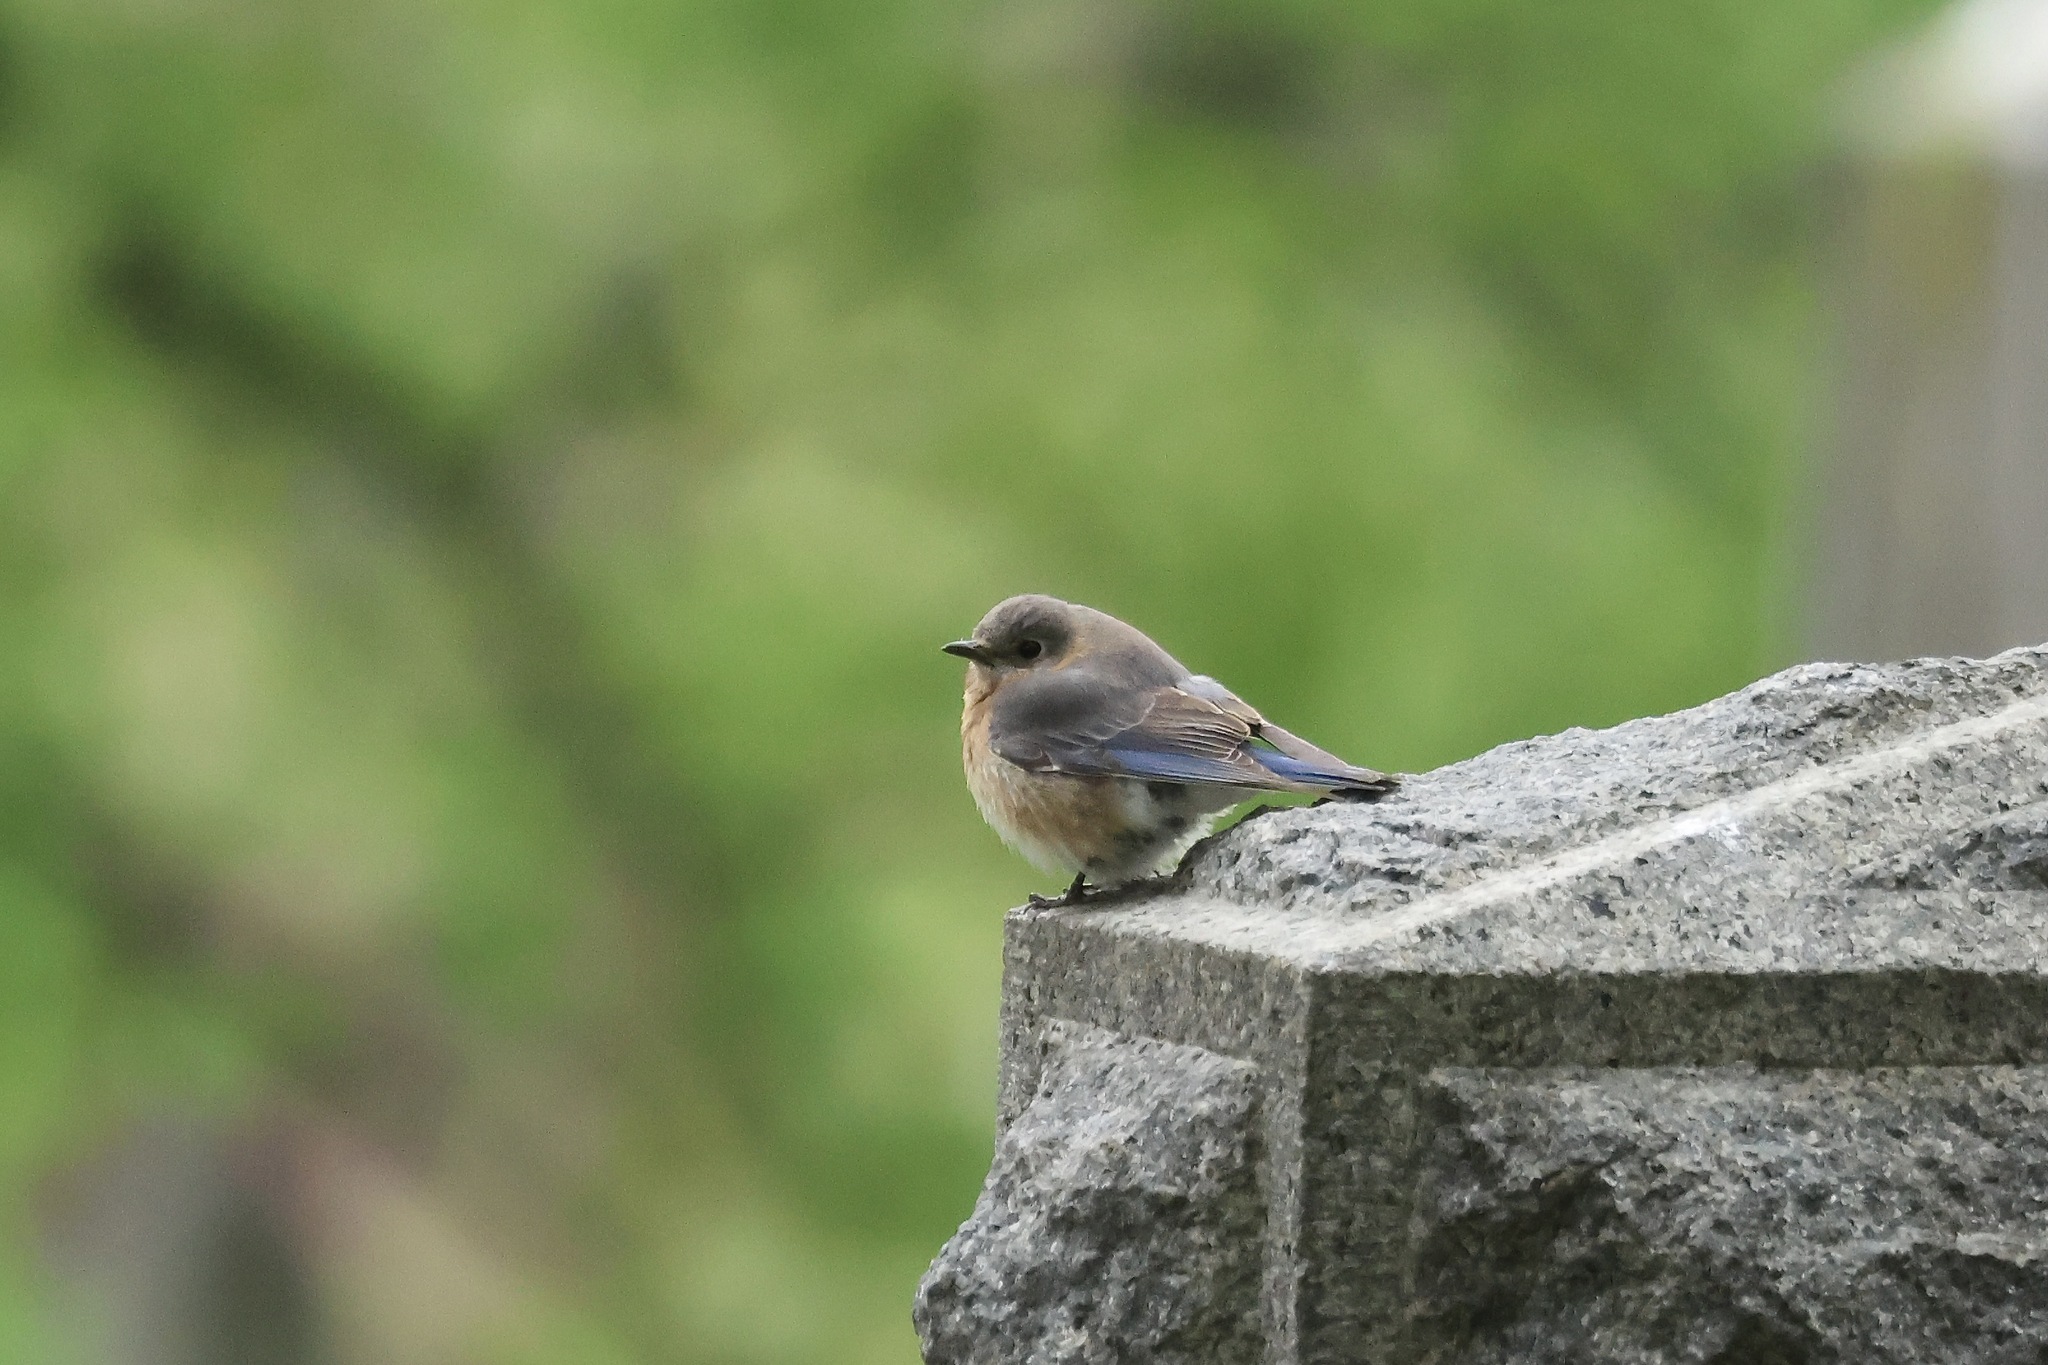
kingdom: Animalia
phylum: Chordata
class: Aves
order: Passeriformes
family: Turdidae
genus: Sialia
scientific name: Sialia sialis
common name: Eastern bluebird
